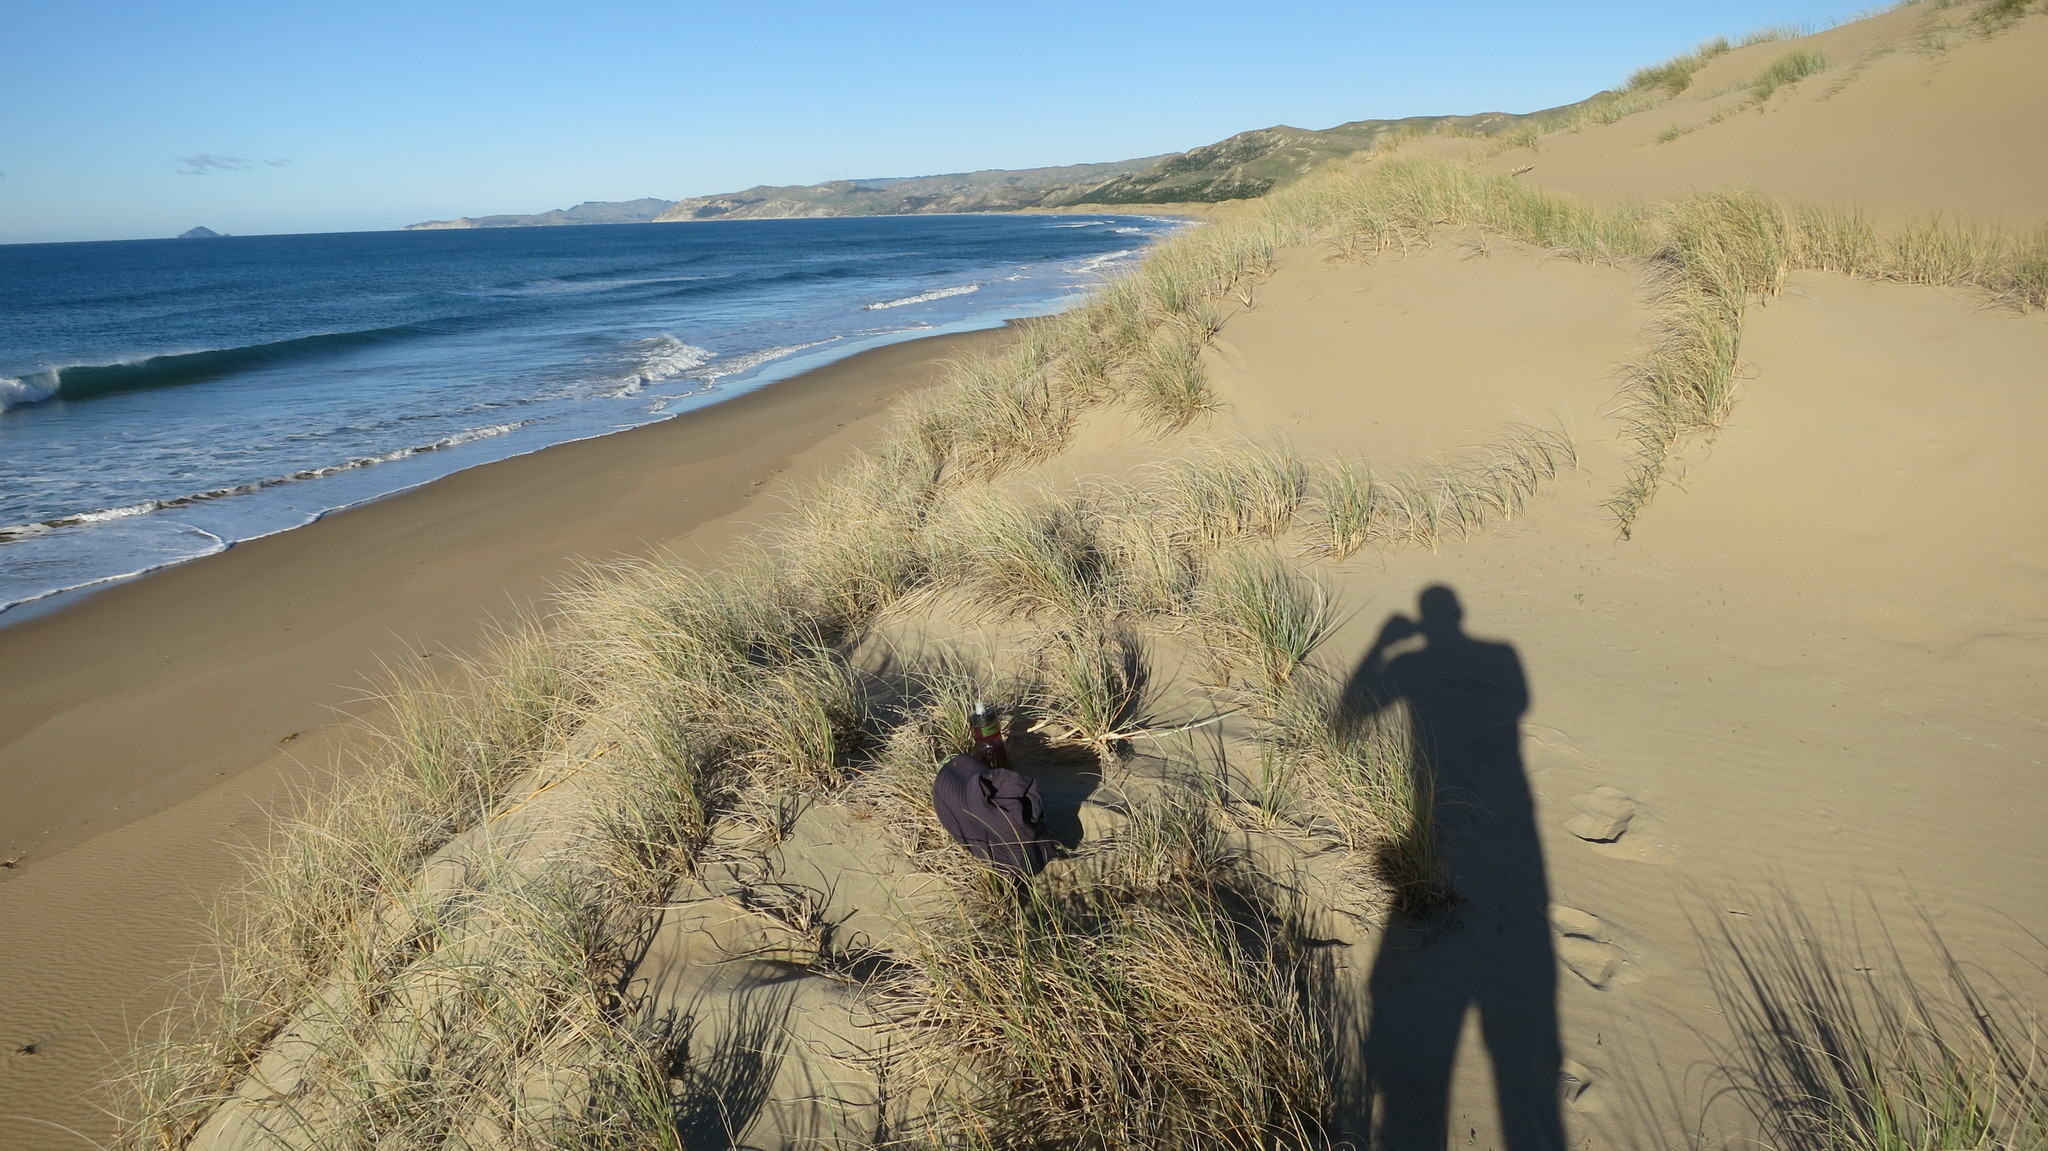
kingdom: Animalia
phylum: Arthropoda
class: Arachnida
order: Araneae
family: Theridiidae
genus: Latrodectus
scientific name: Latrodectus katipo
